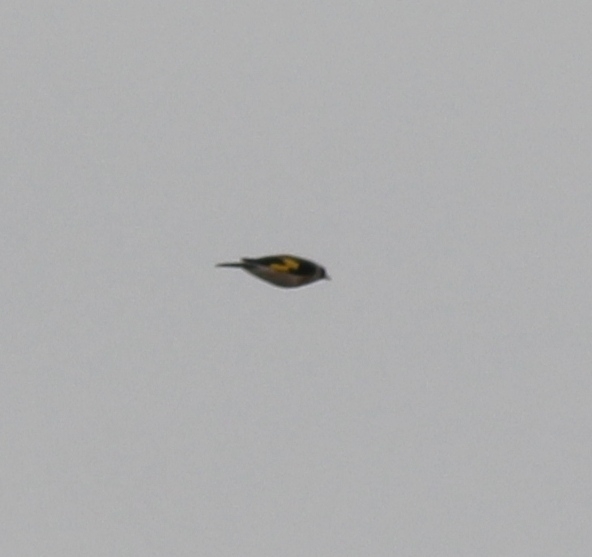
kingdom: Animalia
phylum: Chordata
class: Aves
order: Passeriformes
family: Fringillidae
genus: Carduelis
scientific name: Carduelis carduelis
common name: European goldfinch
